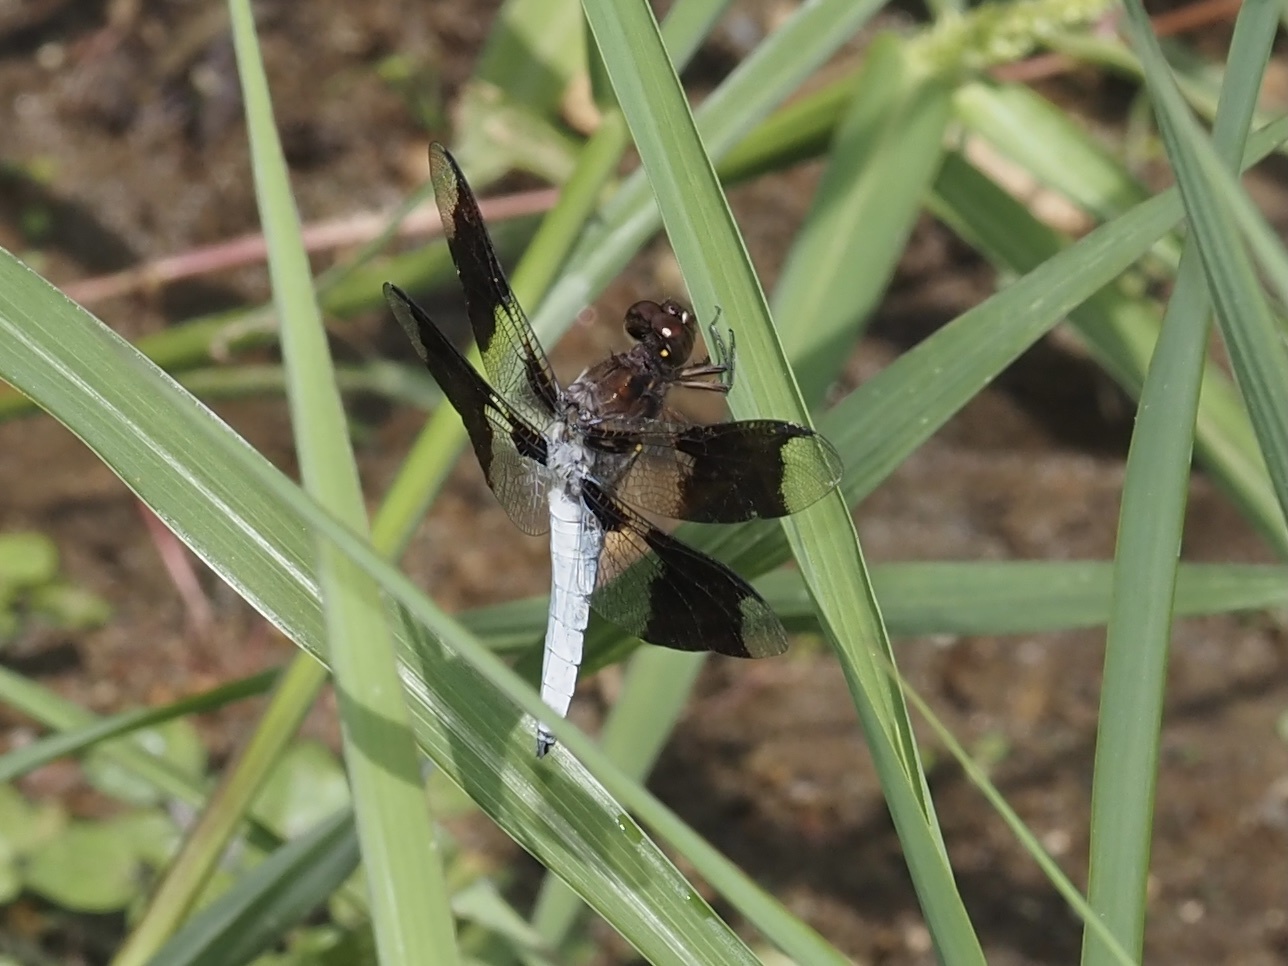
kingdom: Animalia
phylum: Arthropoda
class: Insecta
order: Odonata
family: Libellulidae
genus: Plathemis
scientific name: Plathemis lydia
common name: Common whitetail
